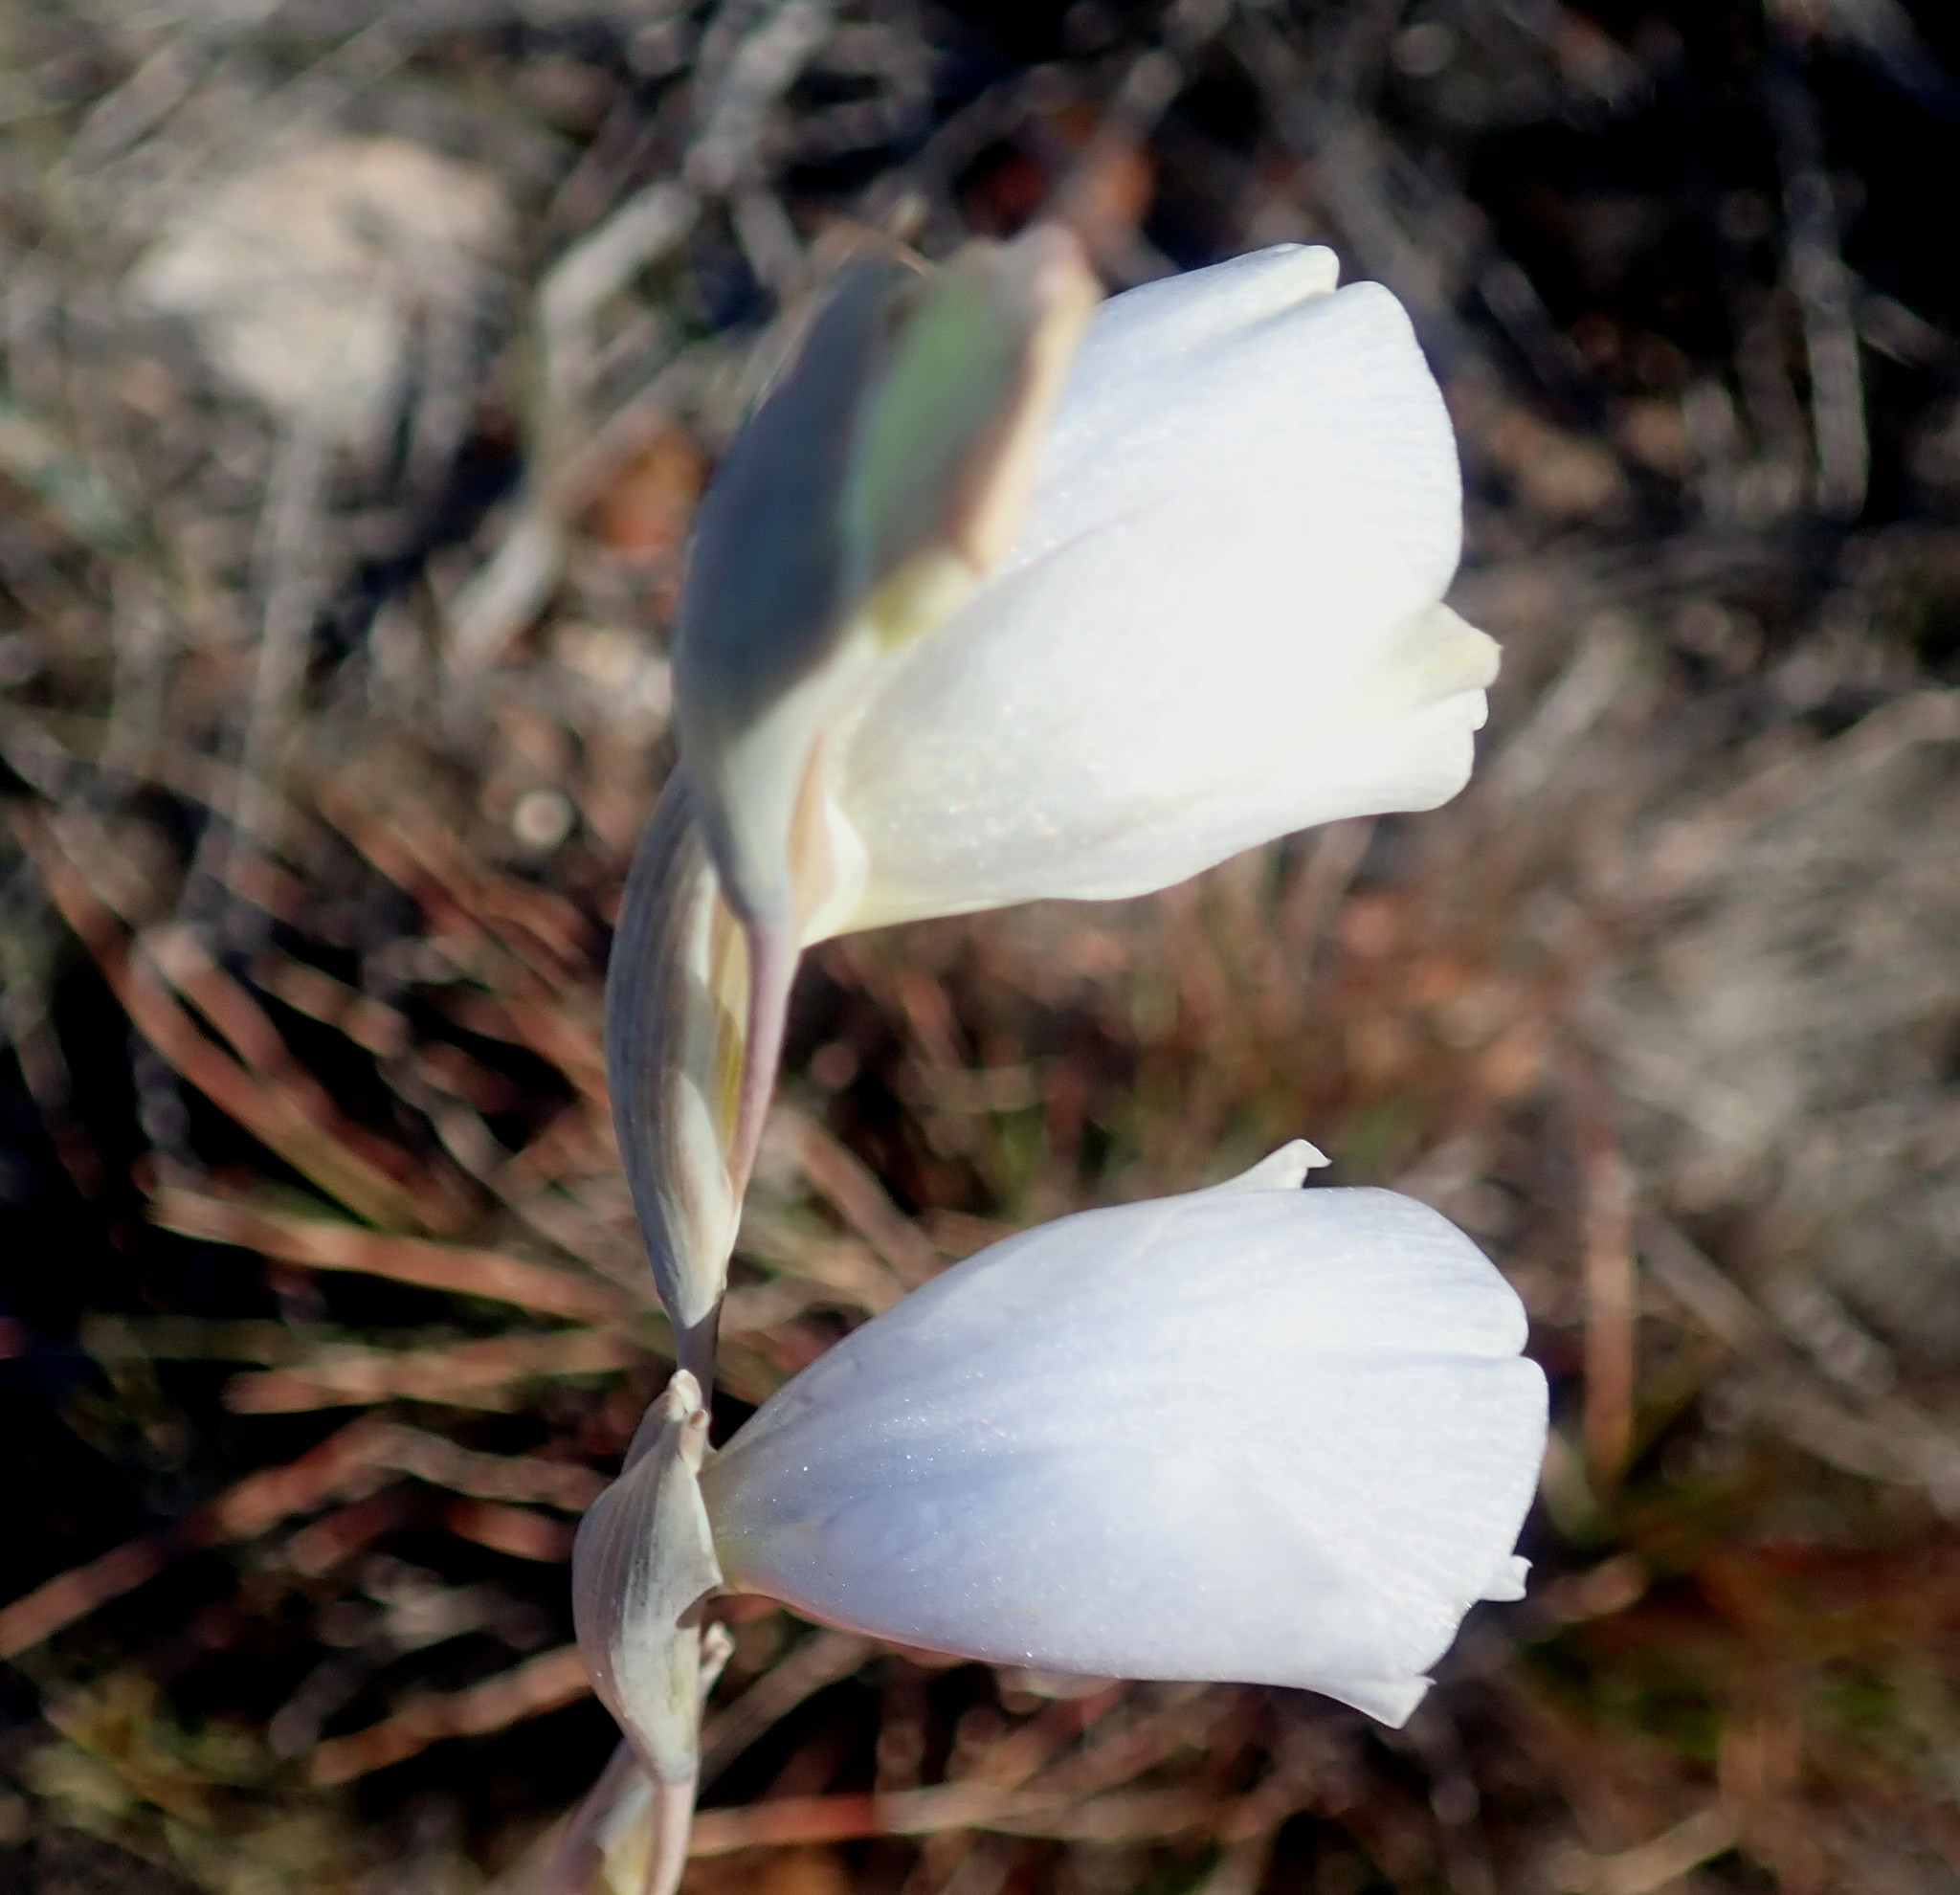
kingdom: Plantae
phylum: Tracheophyta
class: Liliopsida
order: Asparagales
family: Iridaceae
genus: Gladiolus
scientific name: Gladiolus patersoniae
